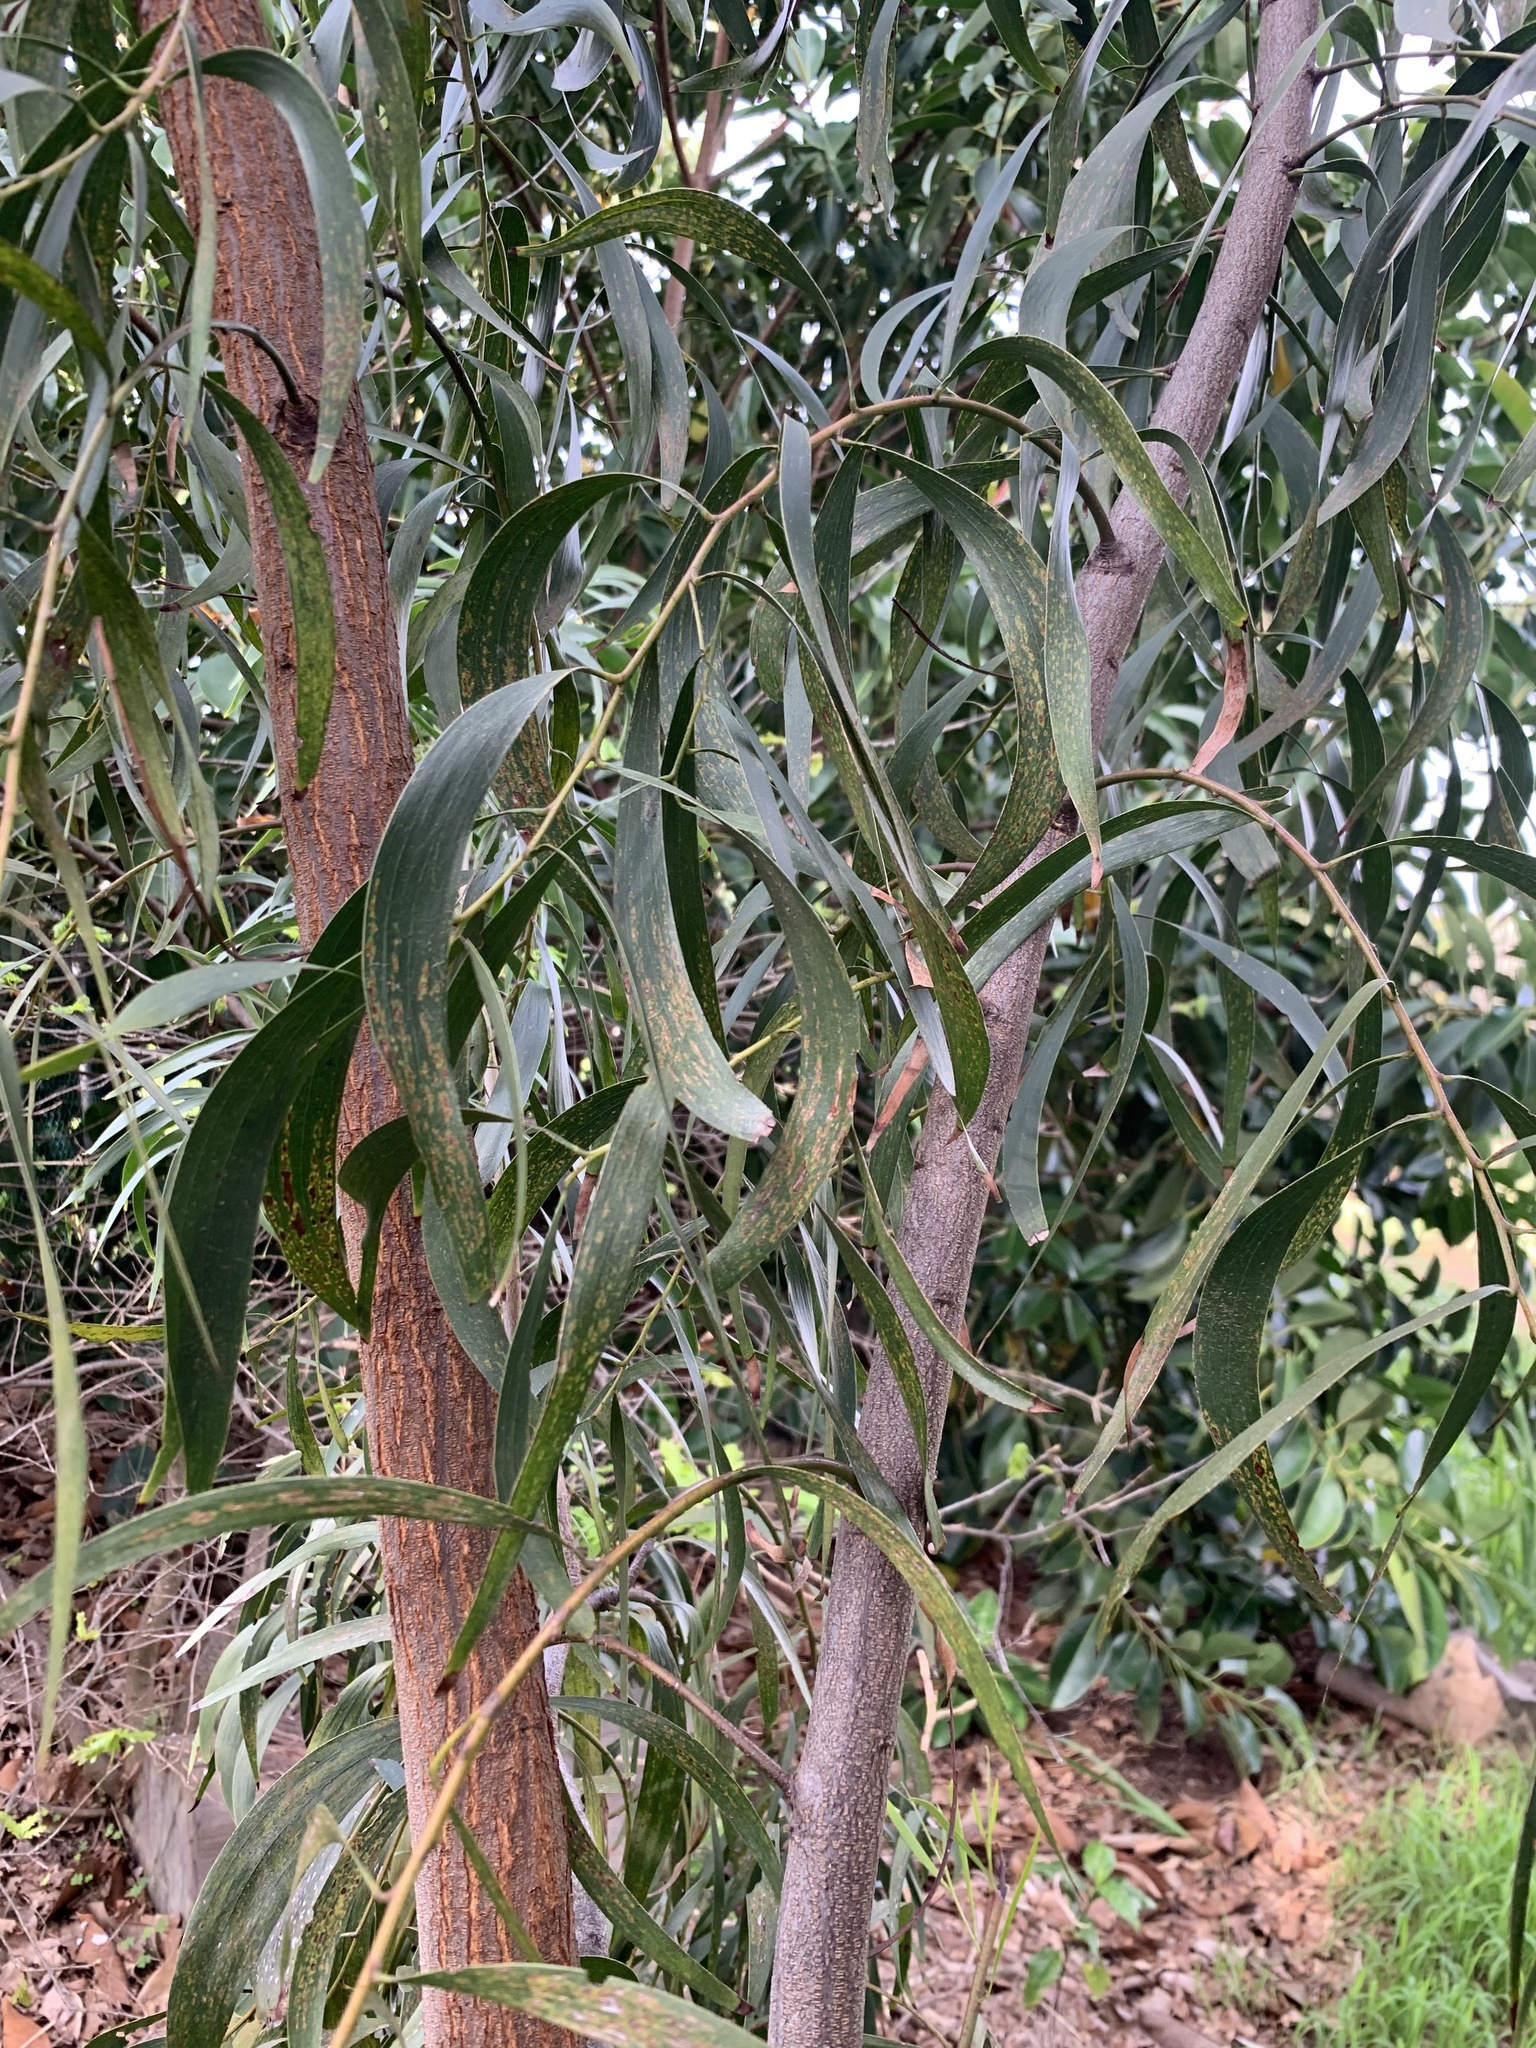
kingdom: Plantae
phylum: Tracheophyta
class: Magnoliopsida
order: Fabales
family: Fabaceae
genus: Acacia
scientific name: Acacia implexa
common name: Black wattle
